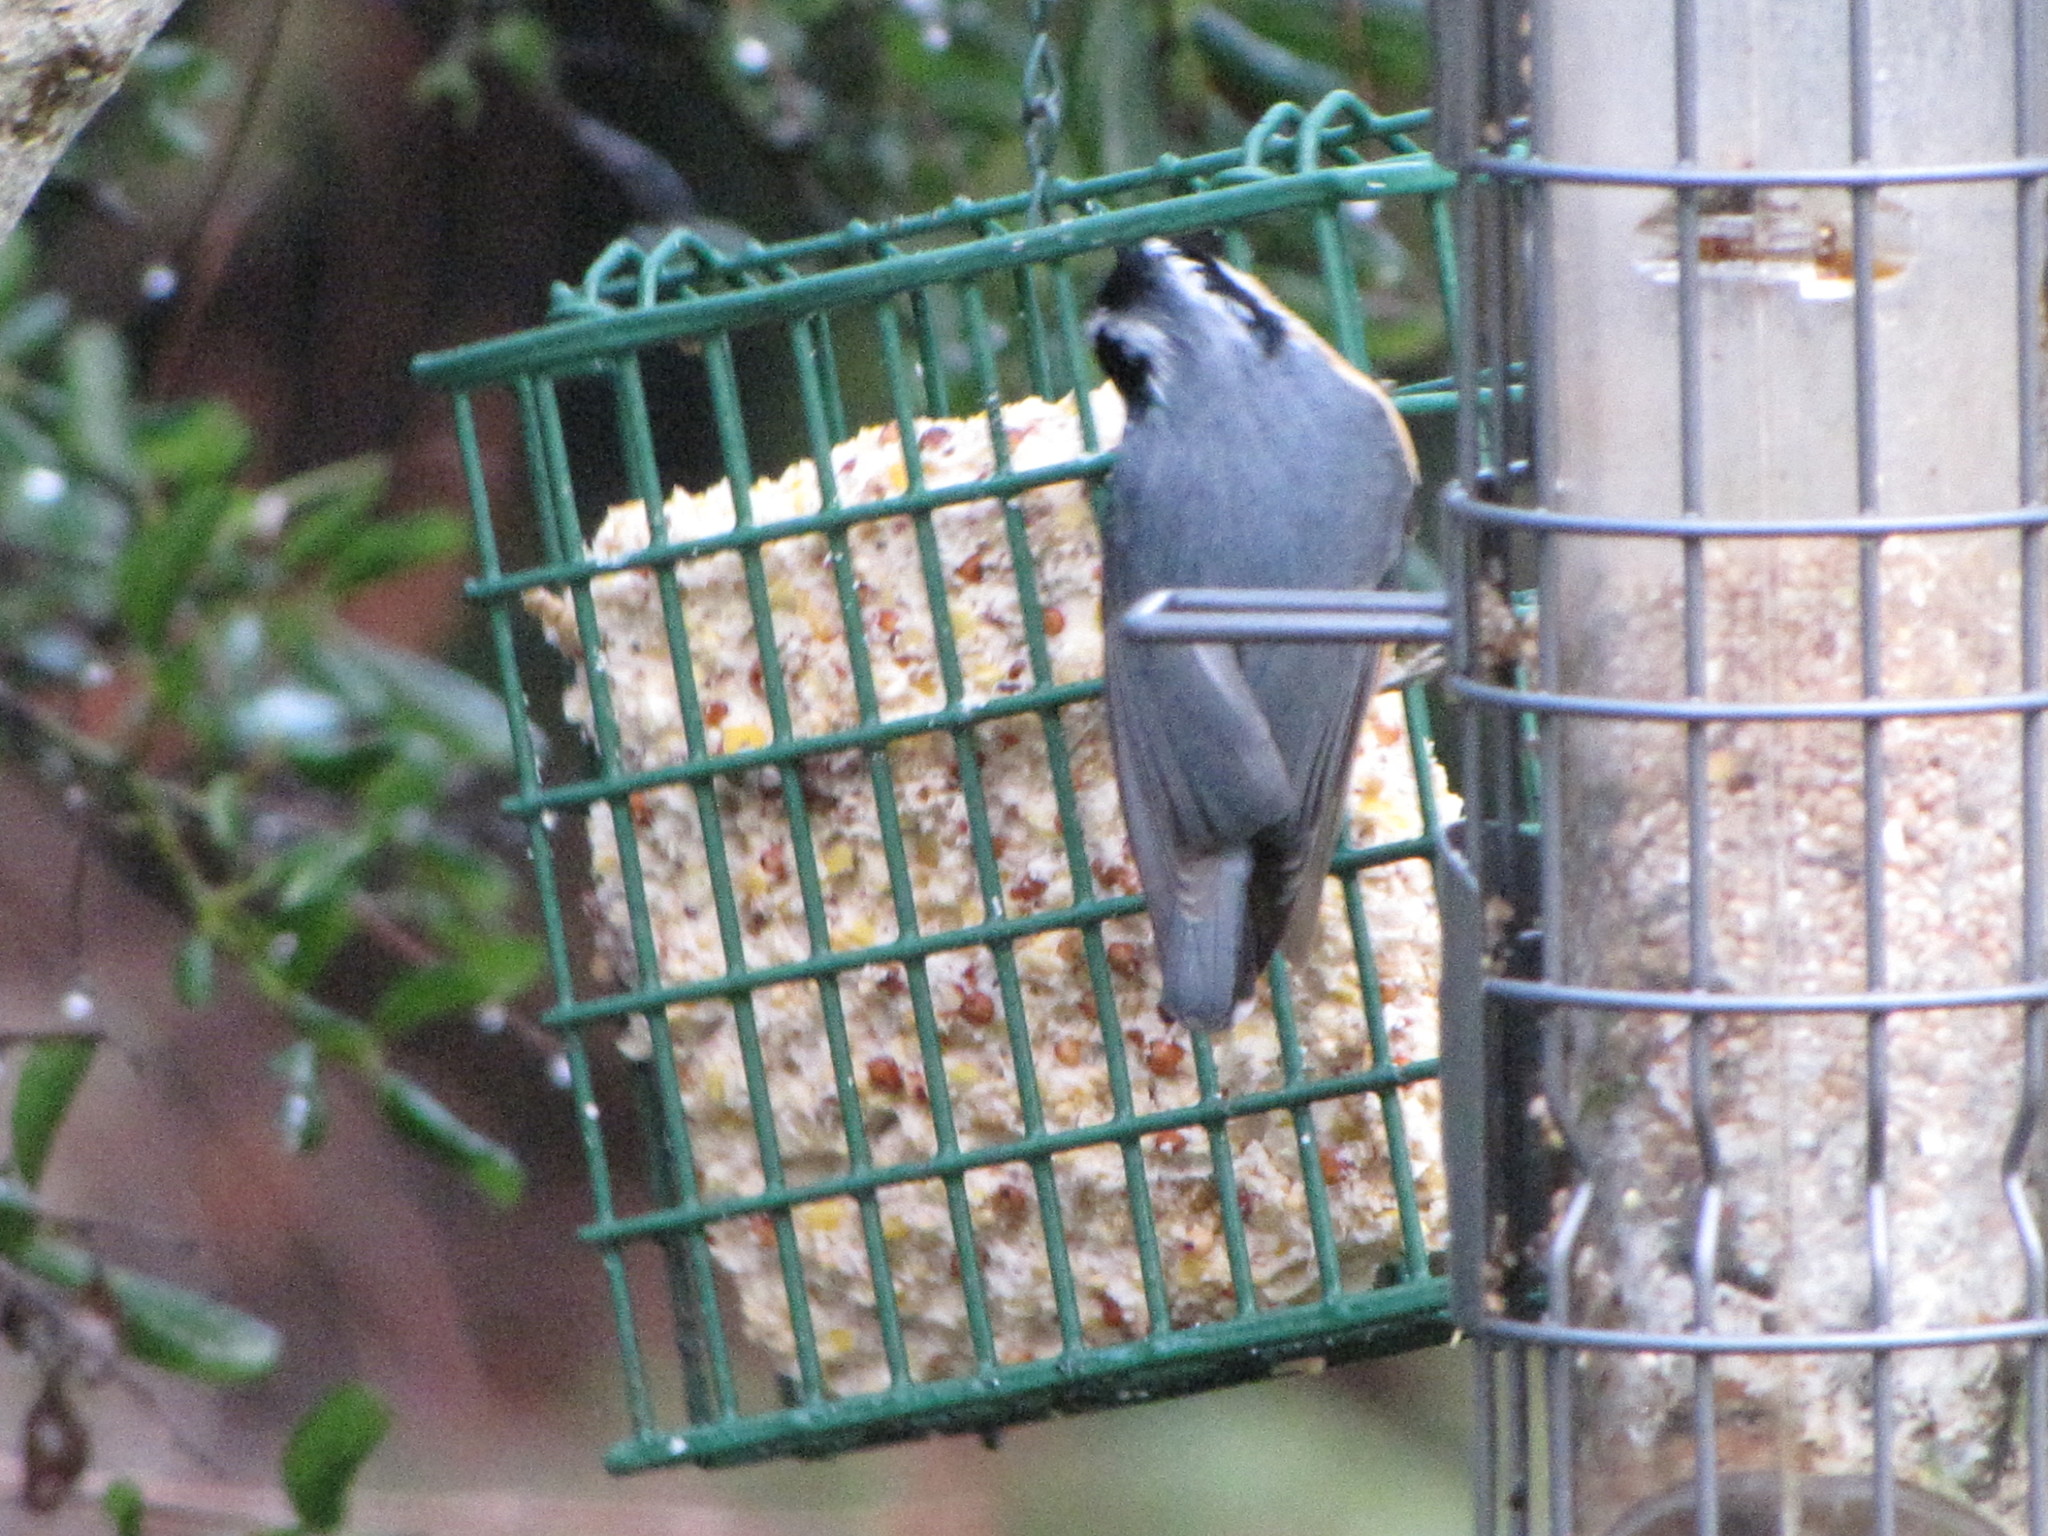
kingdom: Animalia
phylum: Chordata
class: Aves
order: Passeriformes
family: Sittidae
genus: Sitta
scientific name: Sitta canadensis
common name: Red-breasted nuthatch
